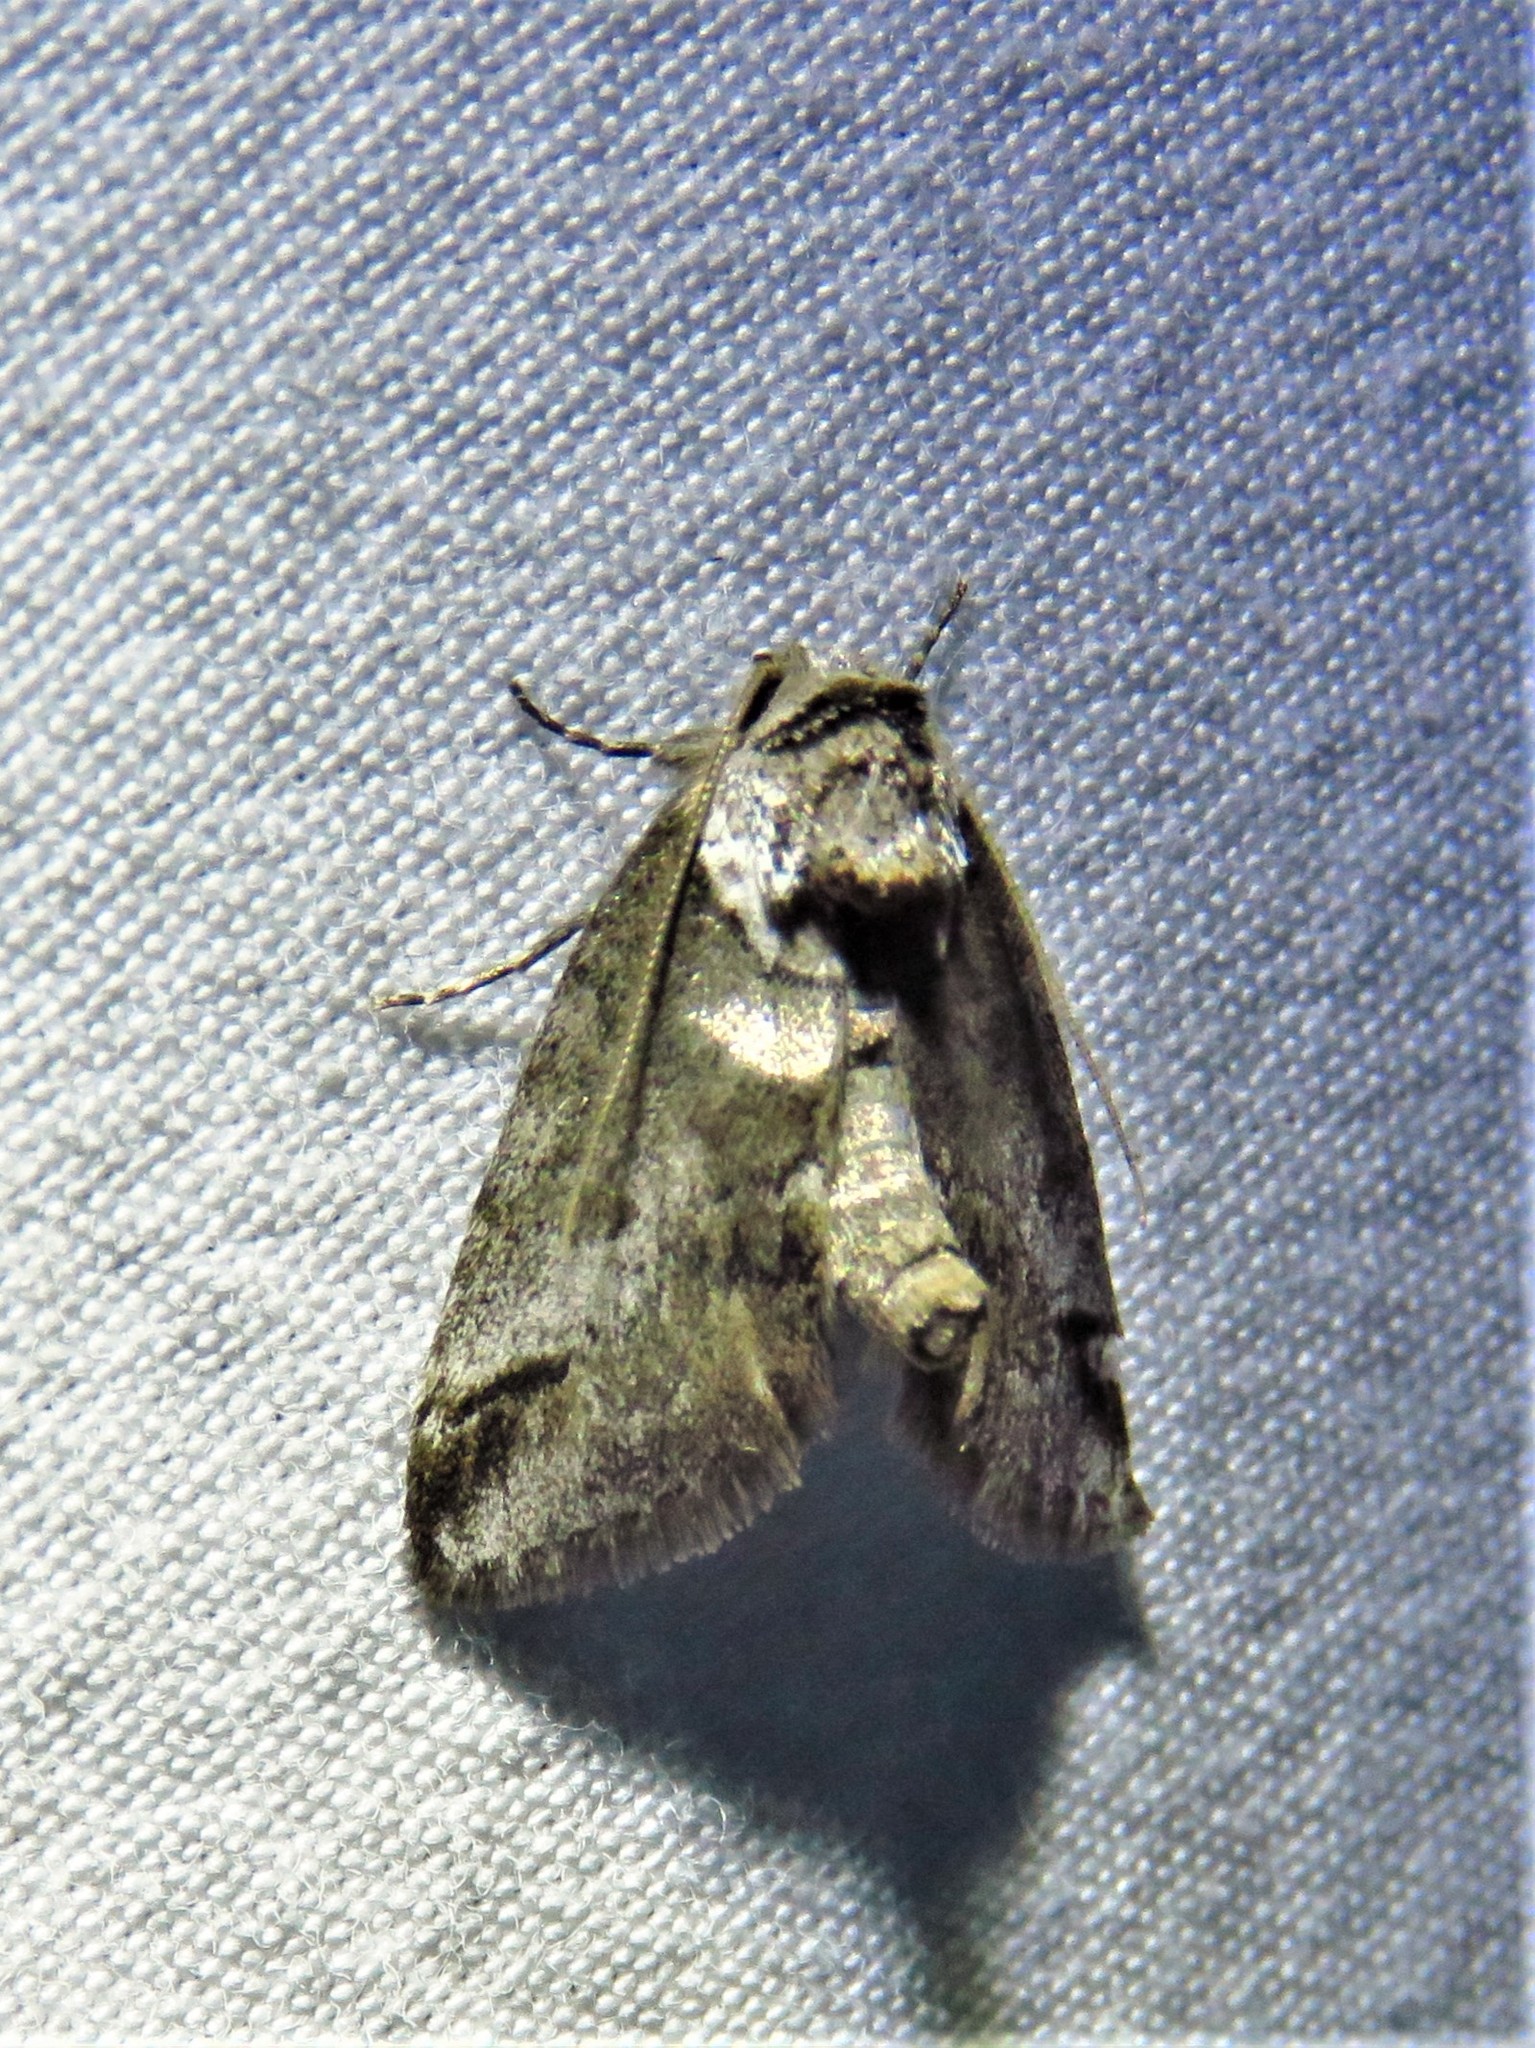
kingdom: Animalia
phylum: Arthropoda
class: Insecta
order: Lepidoptera
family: Nolidae
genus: Baileya
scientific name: Baileya australis
